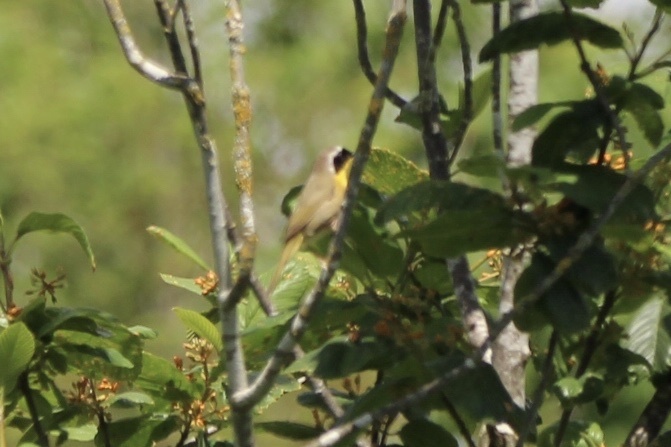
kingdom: Animalia
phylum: Chordata
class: Aves
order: Passeriformes
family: Parulidae
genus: Geothlypis
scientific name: Geothlypis trichas
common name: Common yellowthroat
